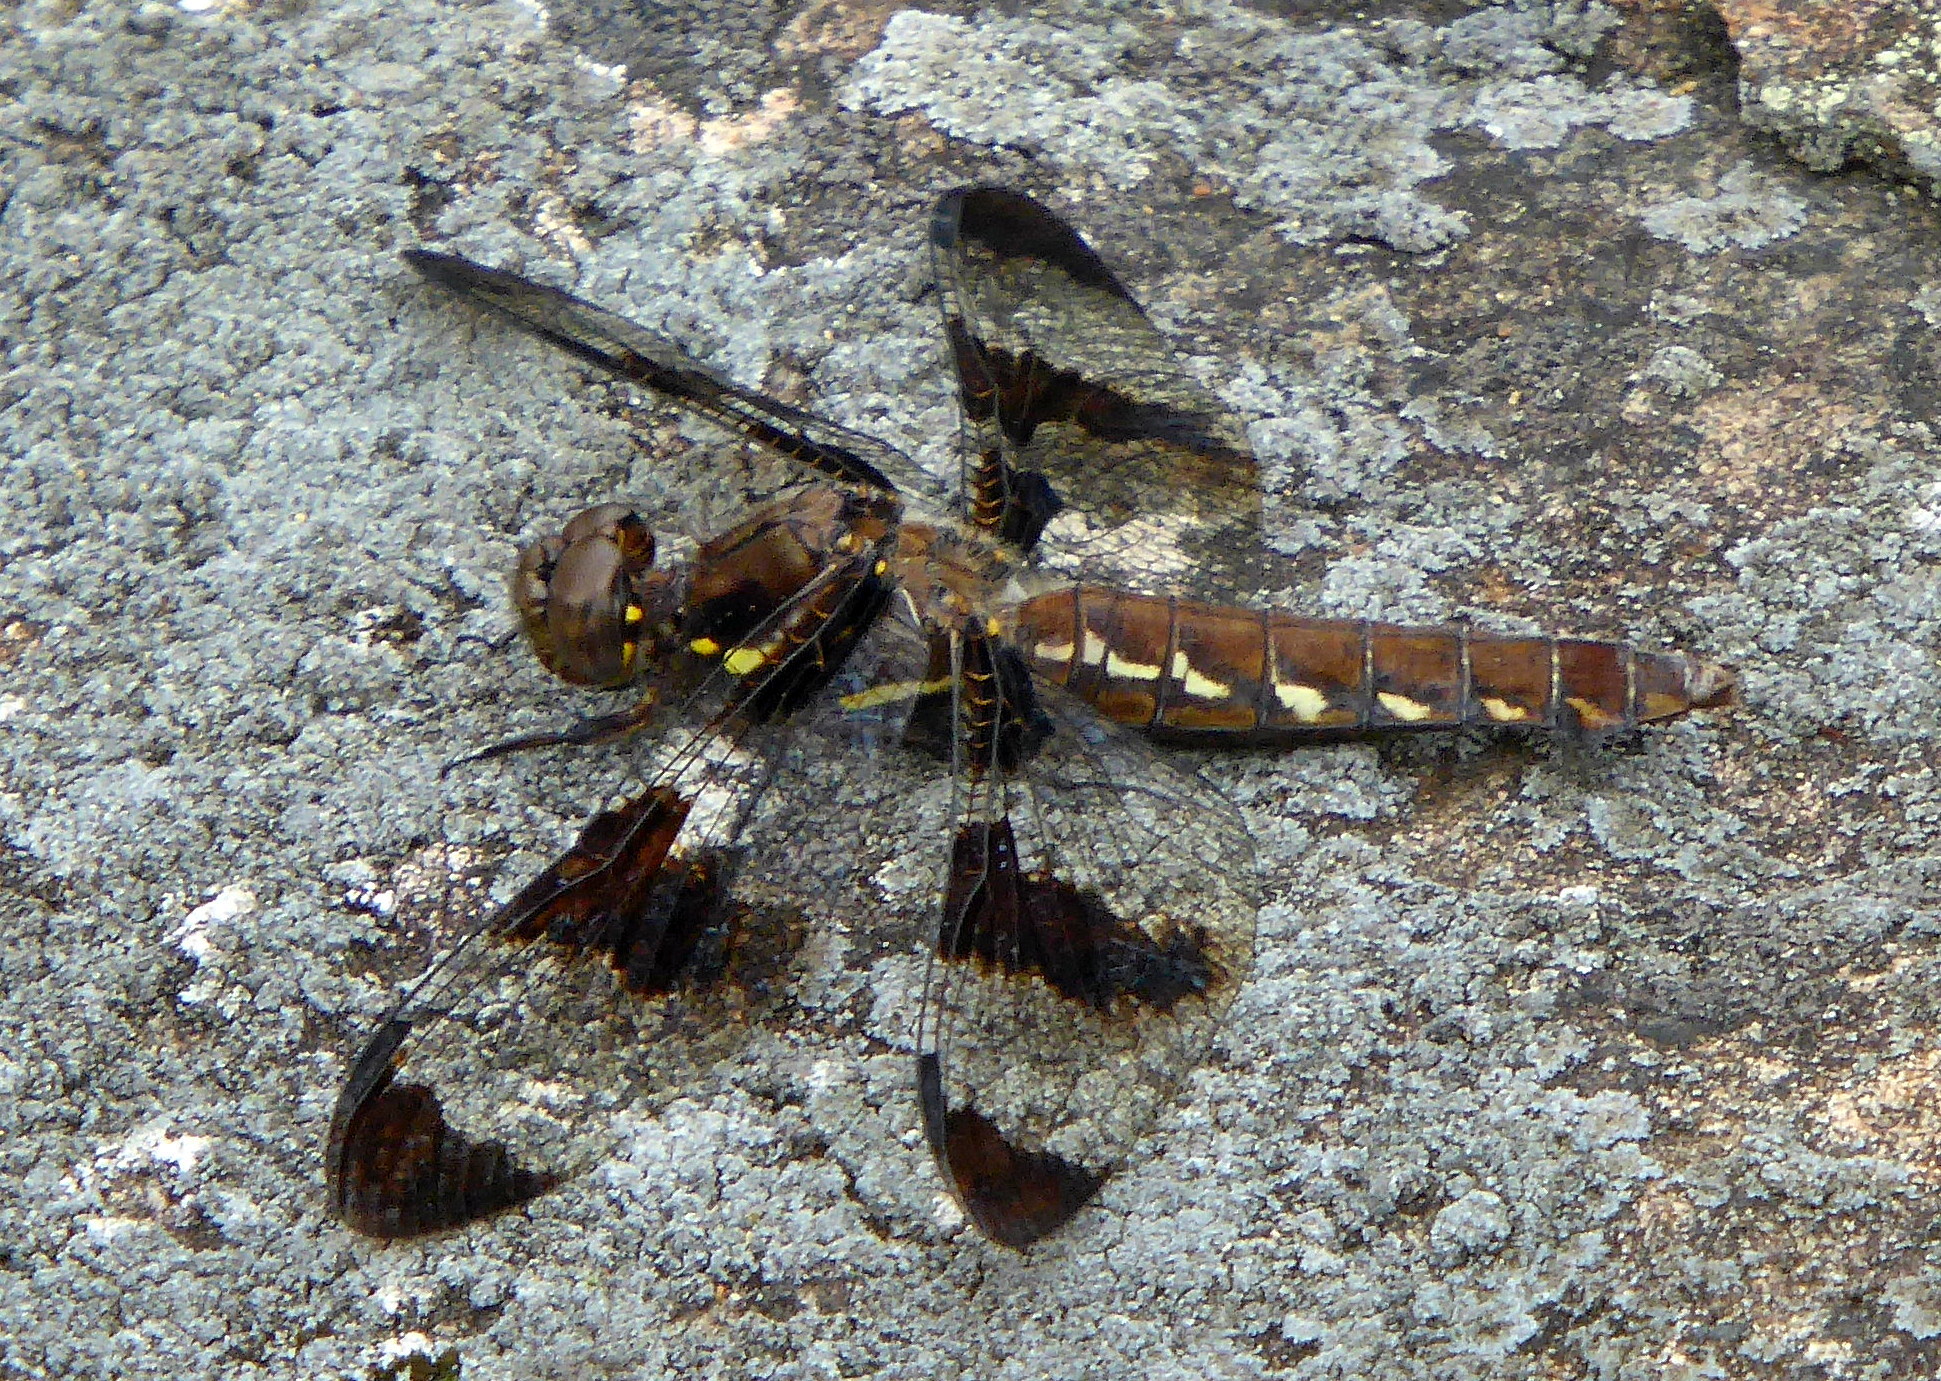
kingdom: Animalia
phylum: Arthropoda
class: Insecta
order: Odonata
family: Libellulidae
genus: Plathemis
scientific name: Plathemis lydia
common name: Common whitetail
